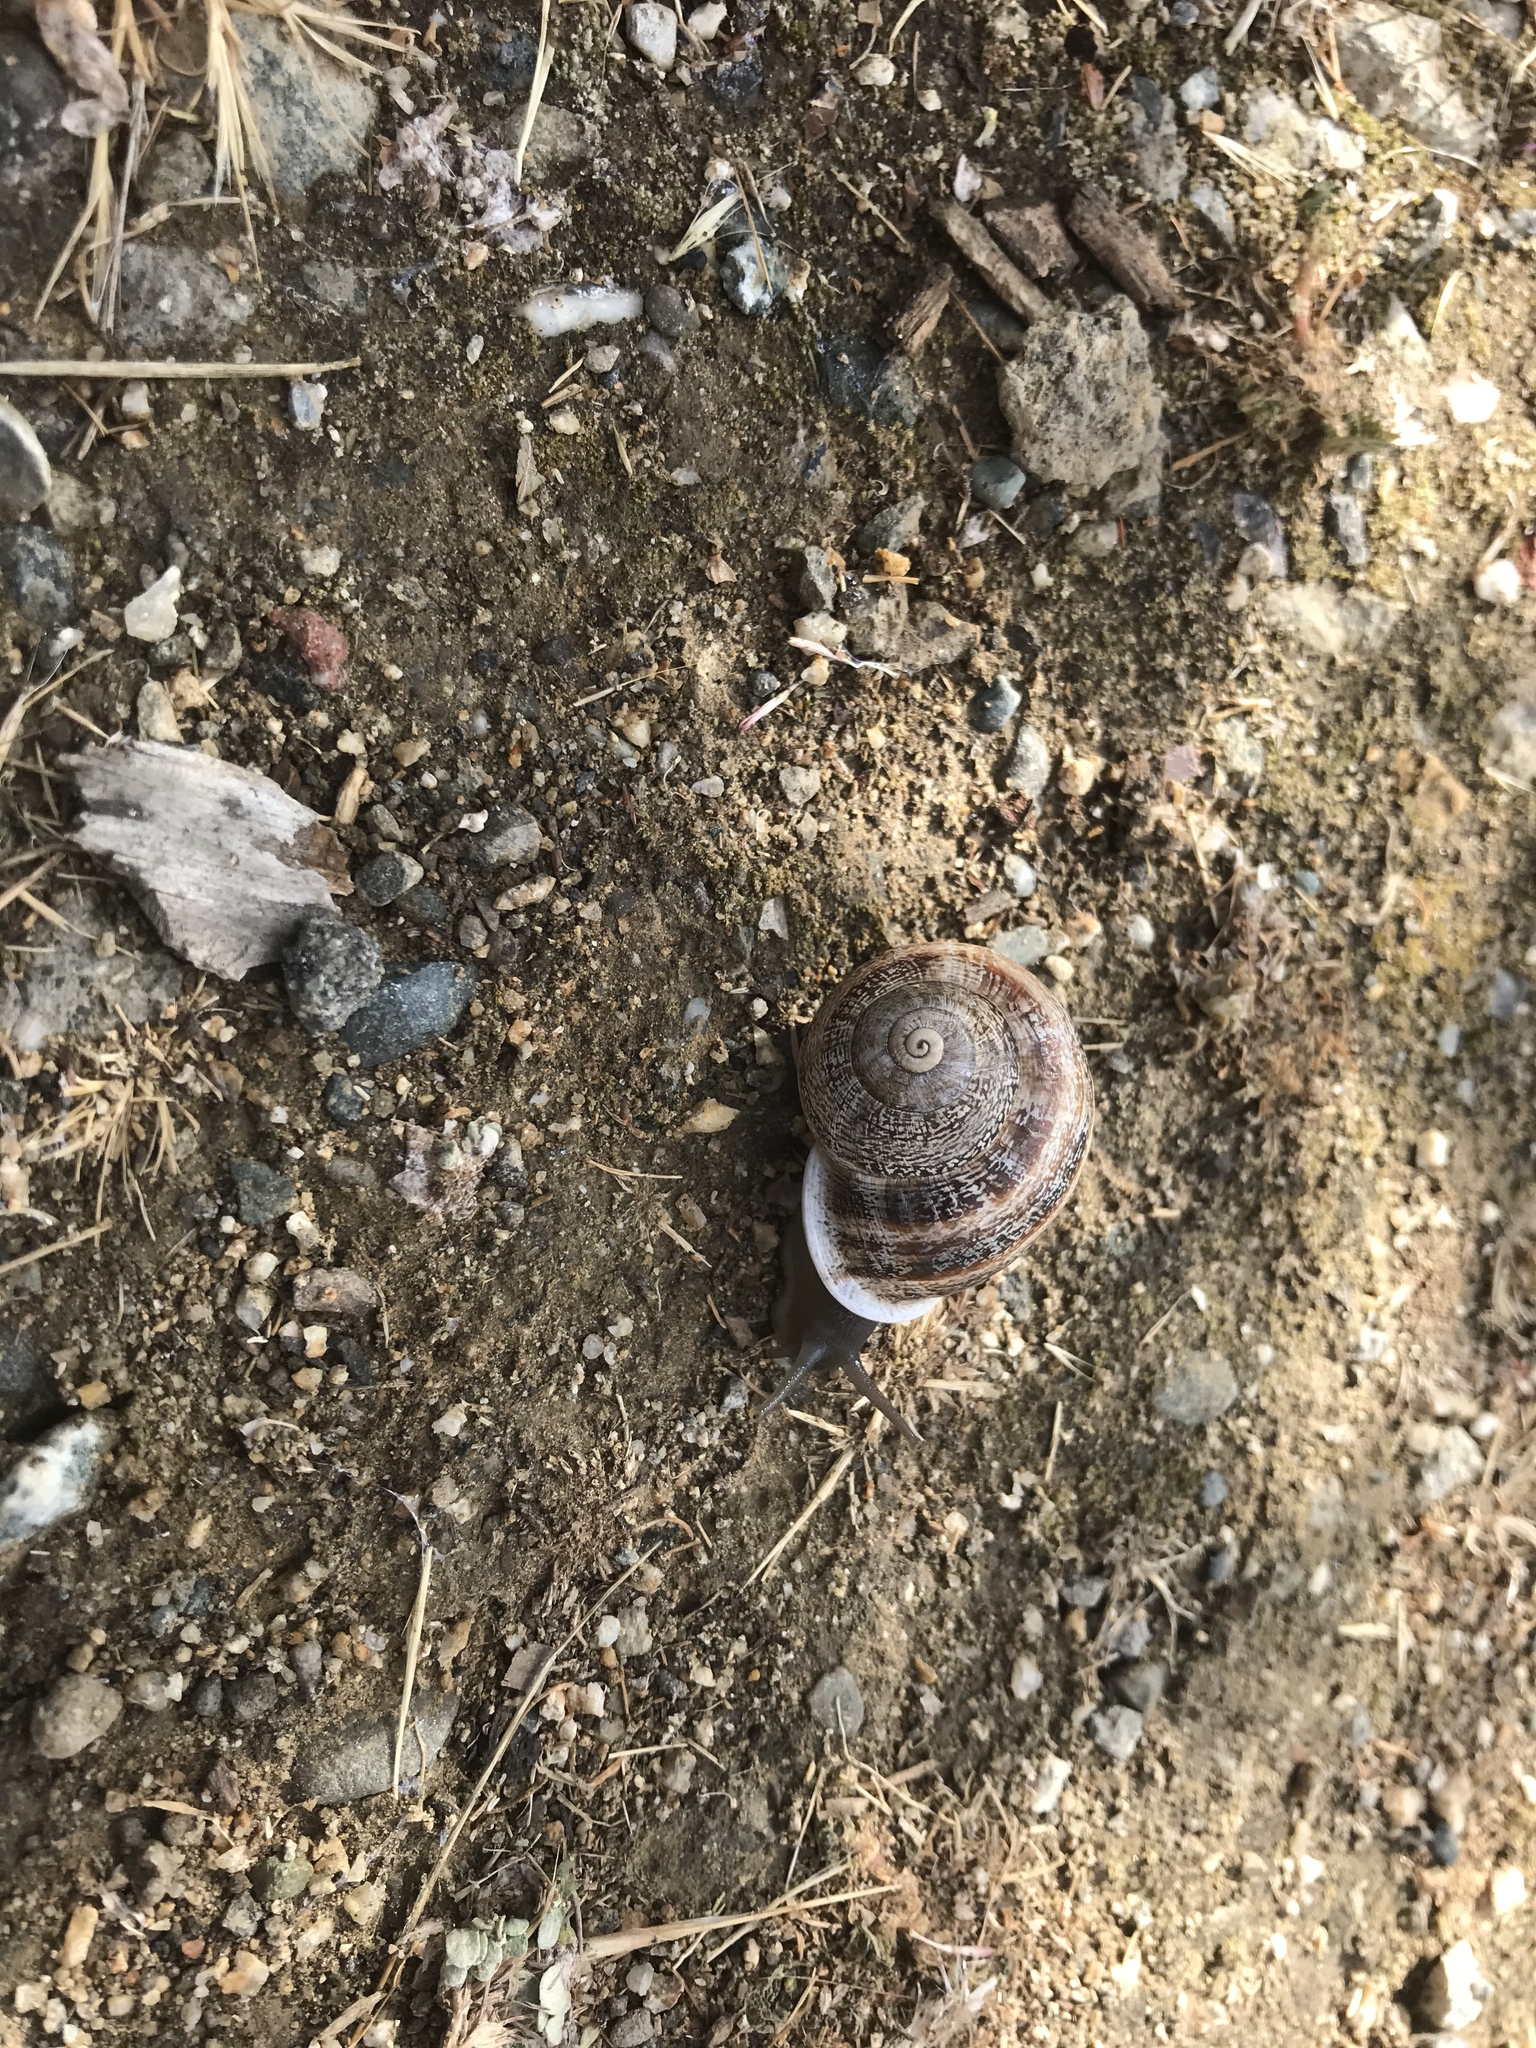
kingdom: Animalia
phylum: Mollusca
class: Gastropoda
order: Stylommatophora
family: Helicidae
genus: Otala
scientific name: Otala lactea
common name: Milk snail
